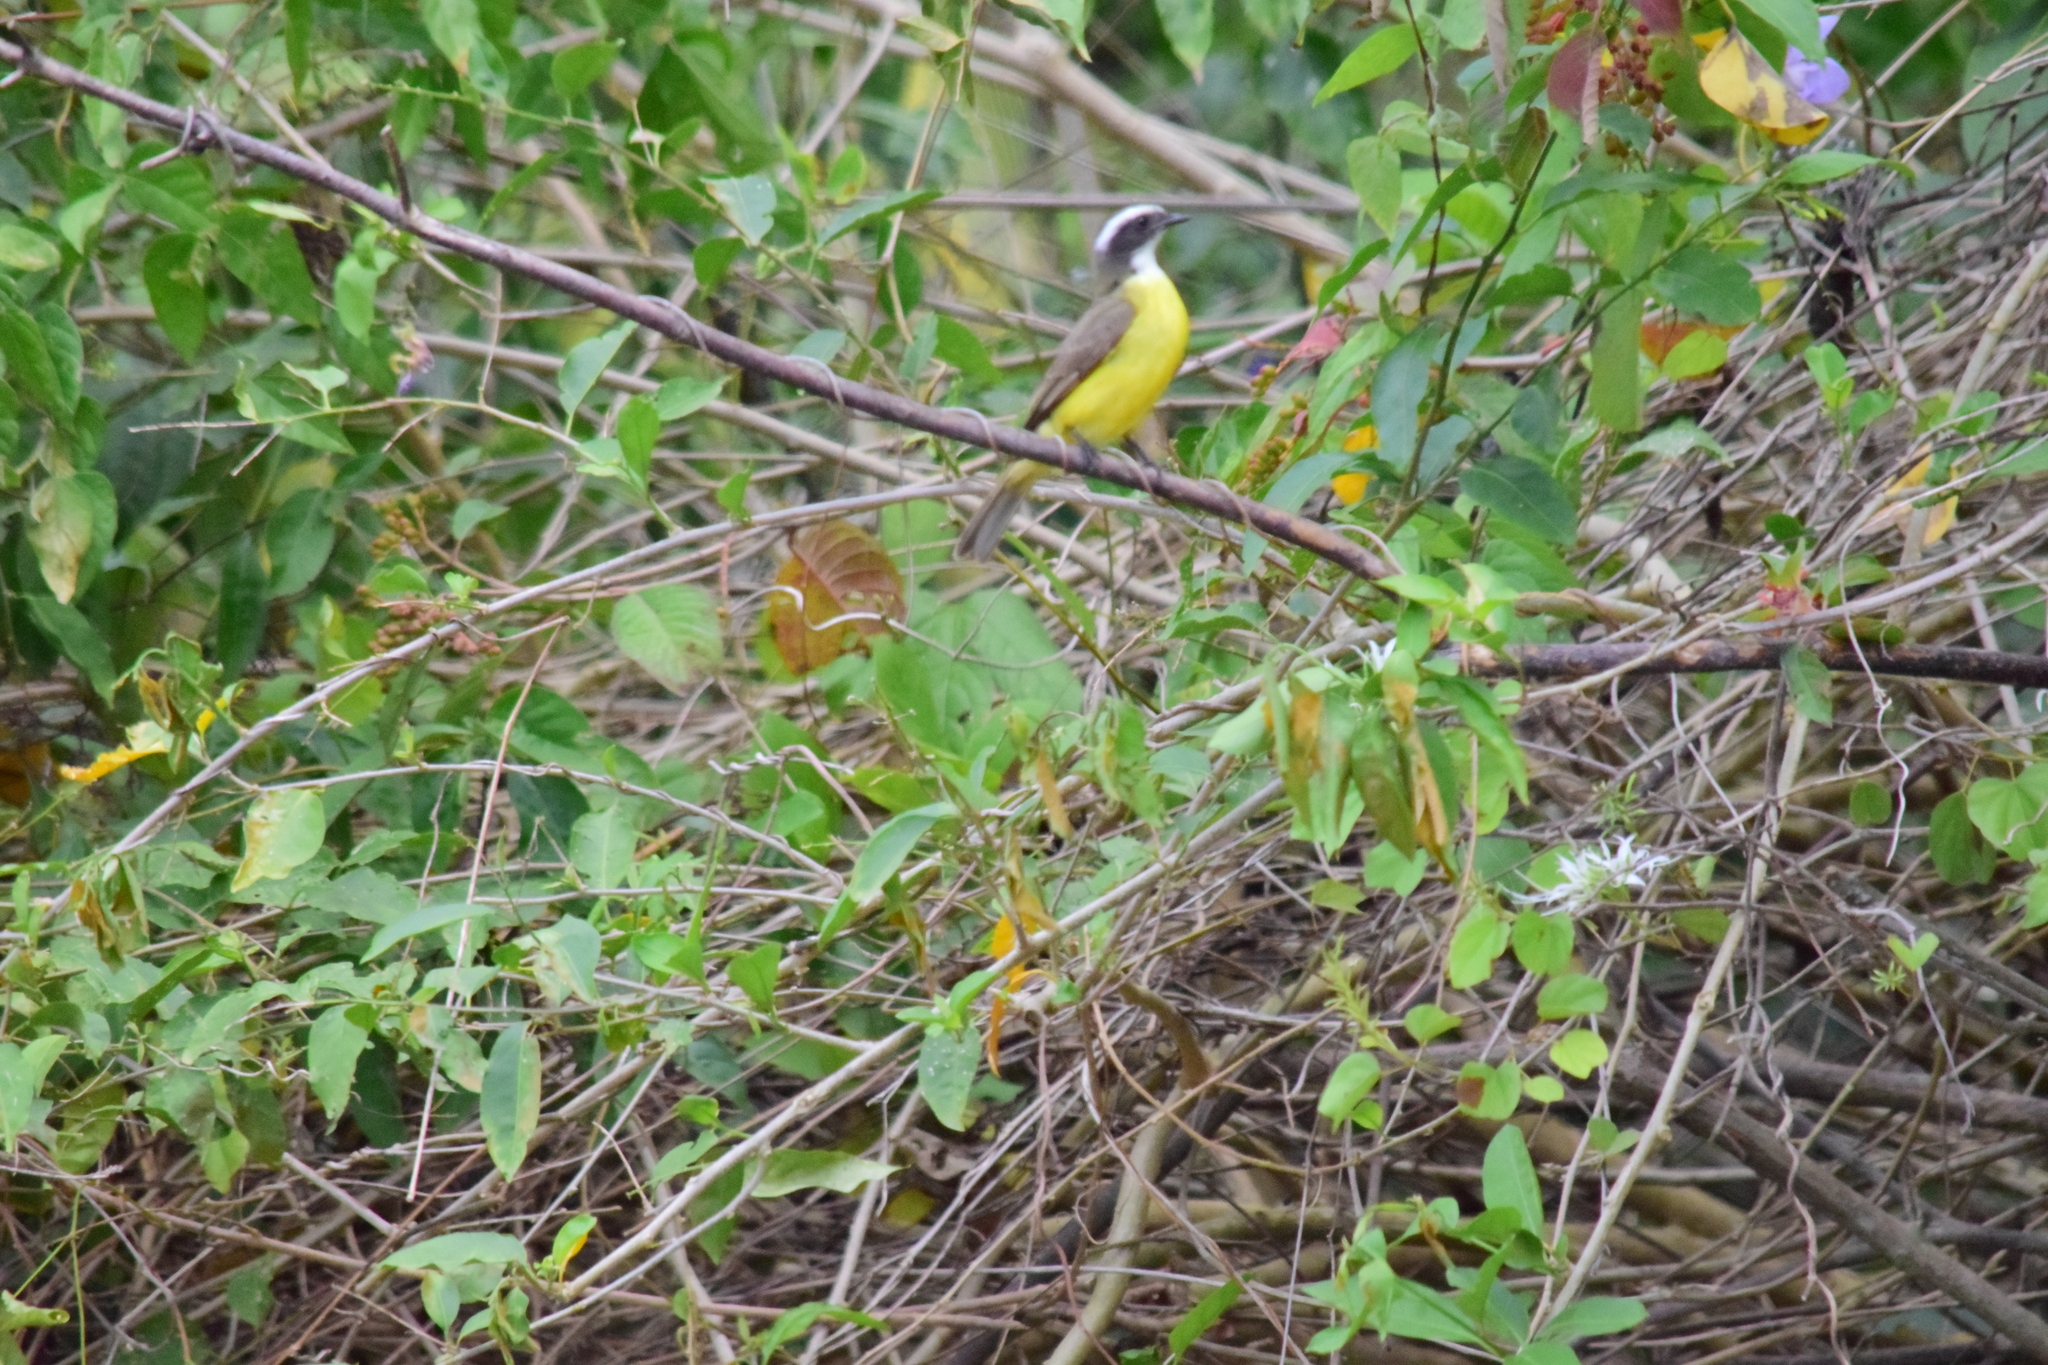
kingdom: Animalia
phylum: Chordata
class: Aves
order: Passeriformes
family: Tyrannidae
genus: Myiozetetes
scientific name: Myiozetetes similis
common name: Social flycatcher
